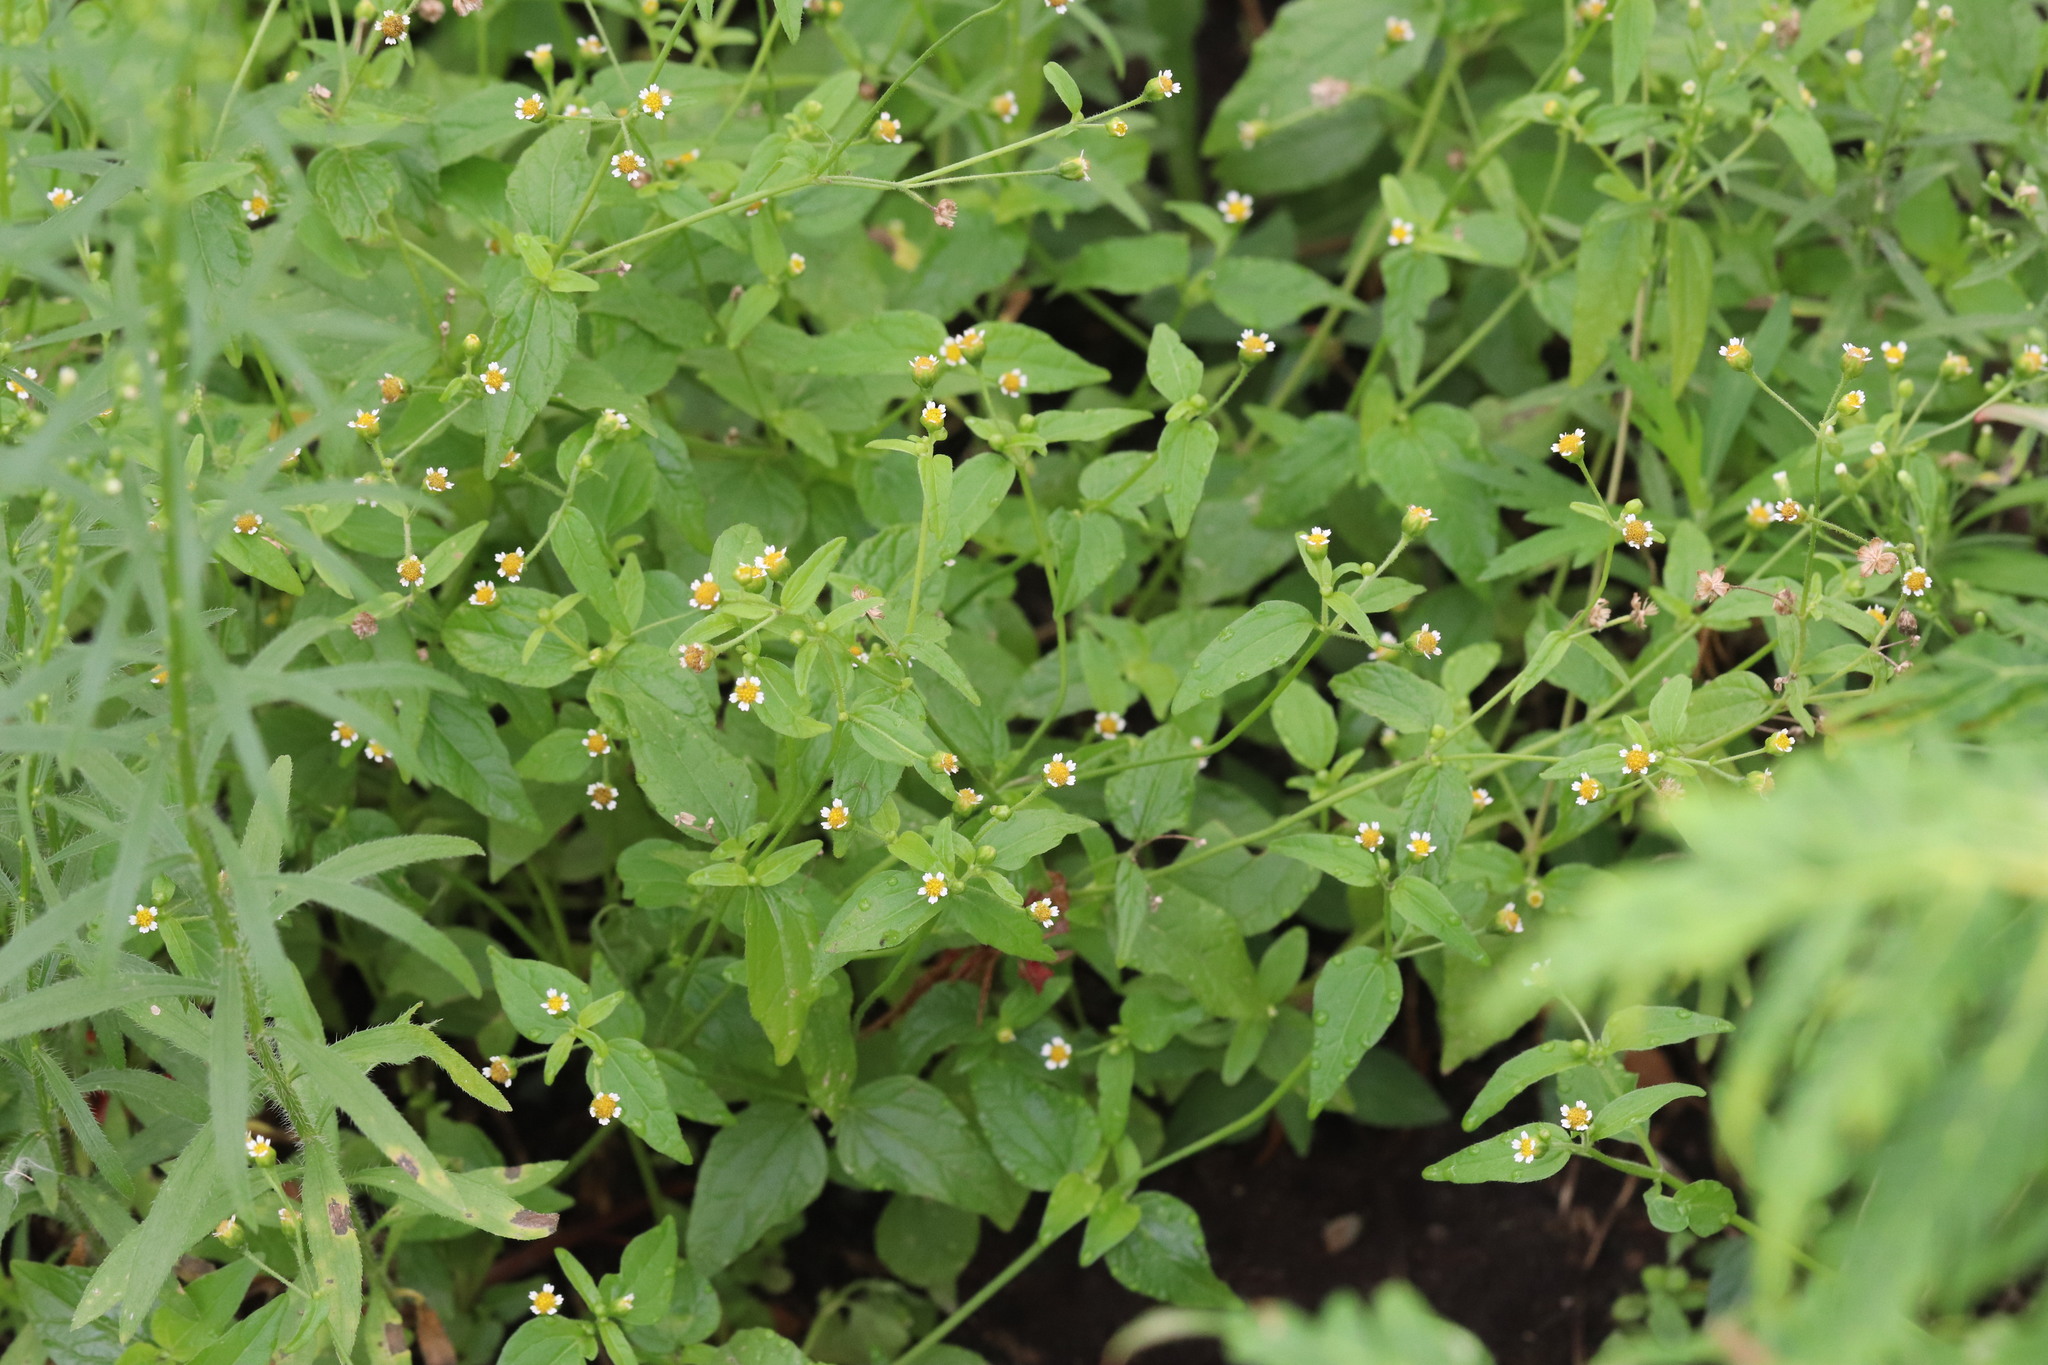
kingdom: Plantae
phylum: Tracheophyta
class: Magnoliopsida
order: Asterales
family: Asteraceae
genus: Galinsoga
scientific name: Galinsoga parviflora
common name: Gallant soldier
